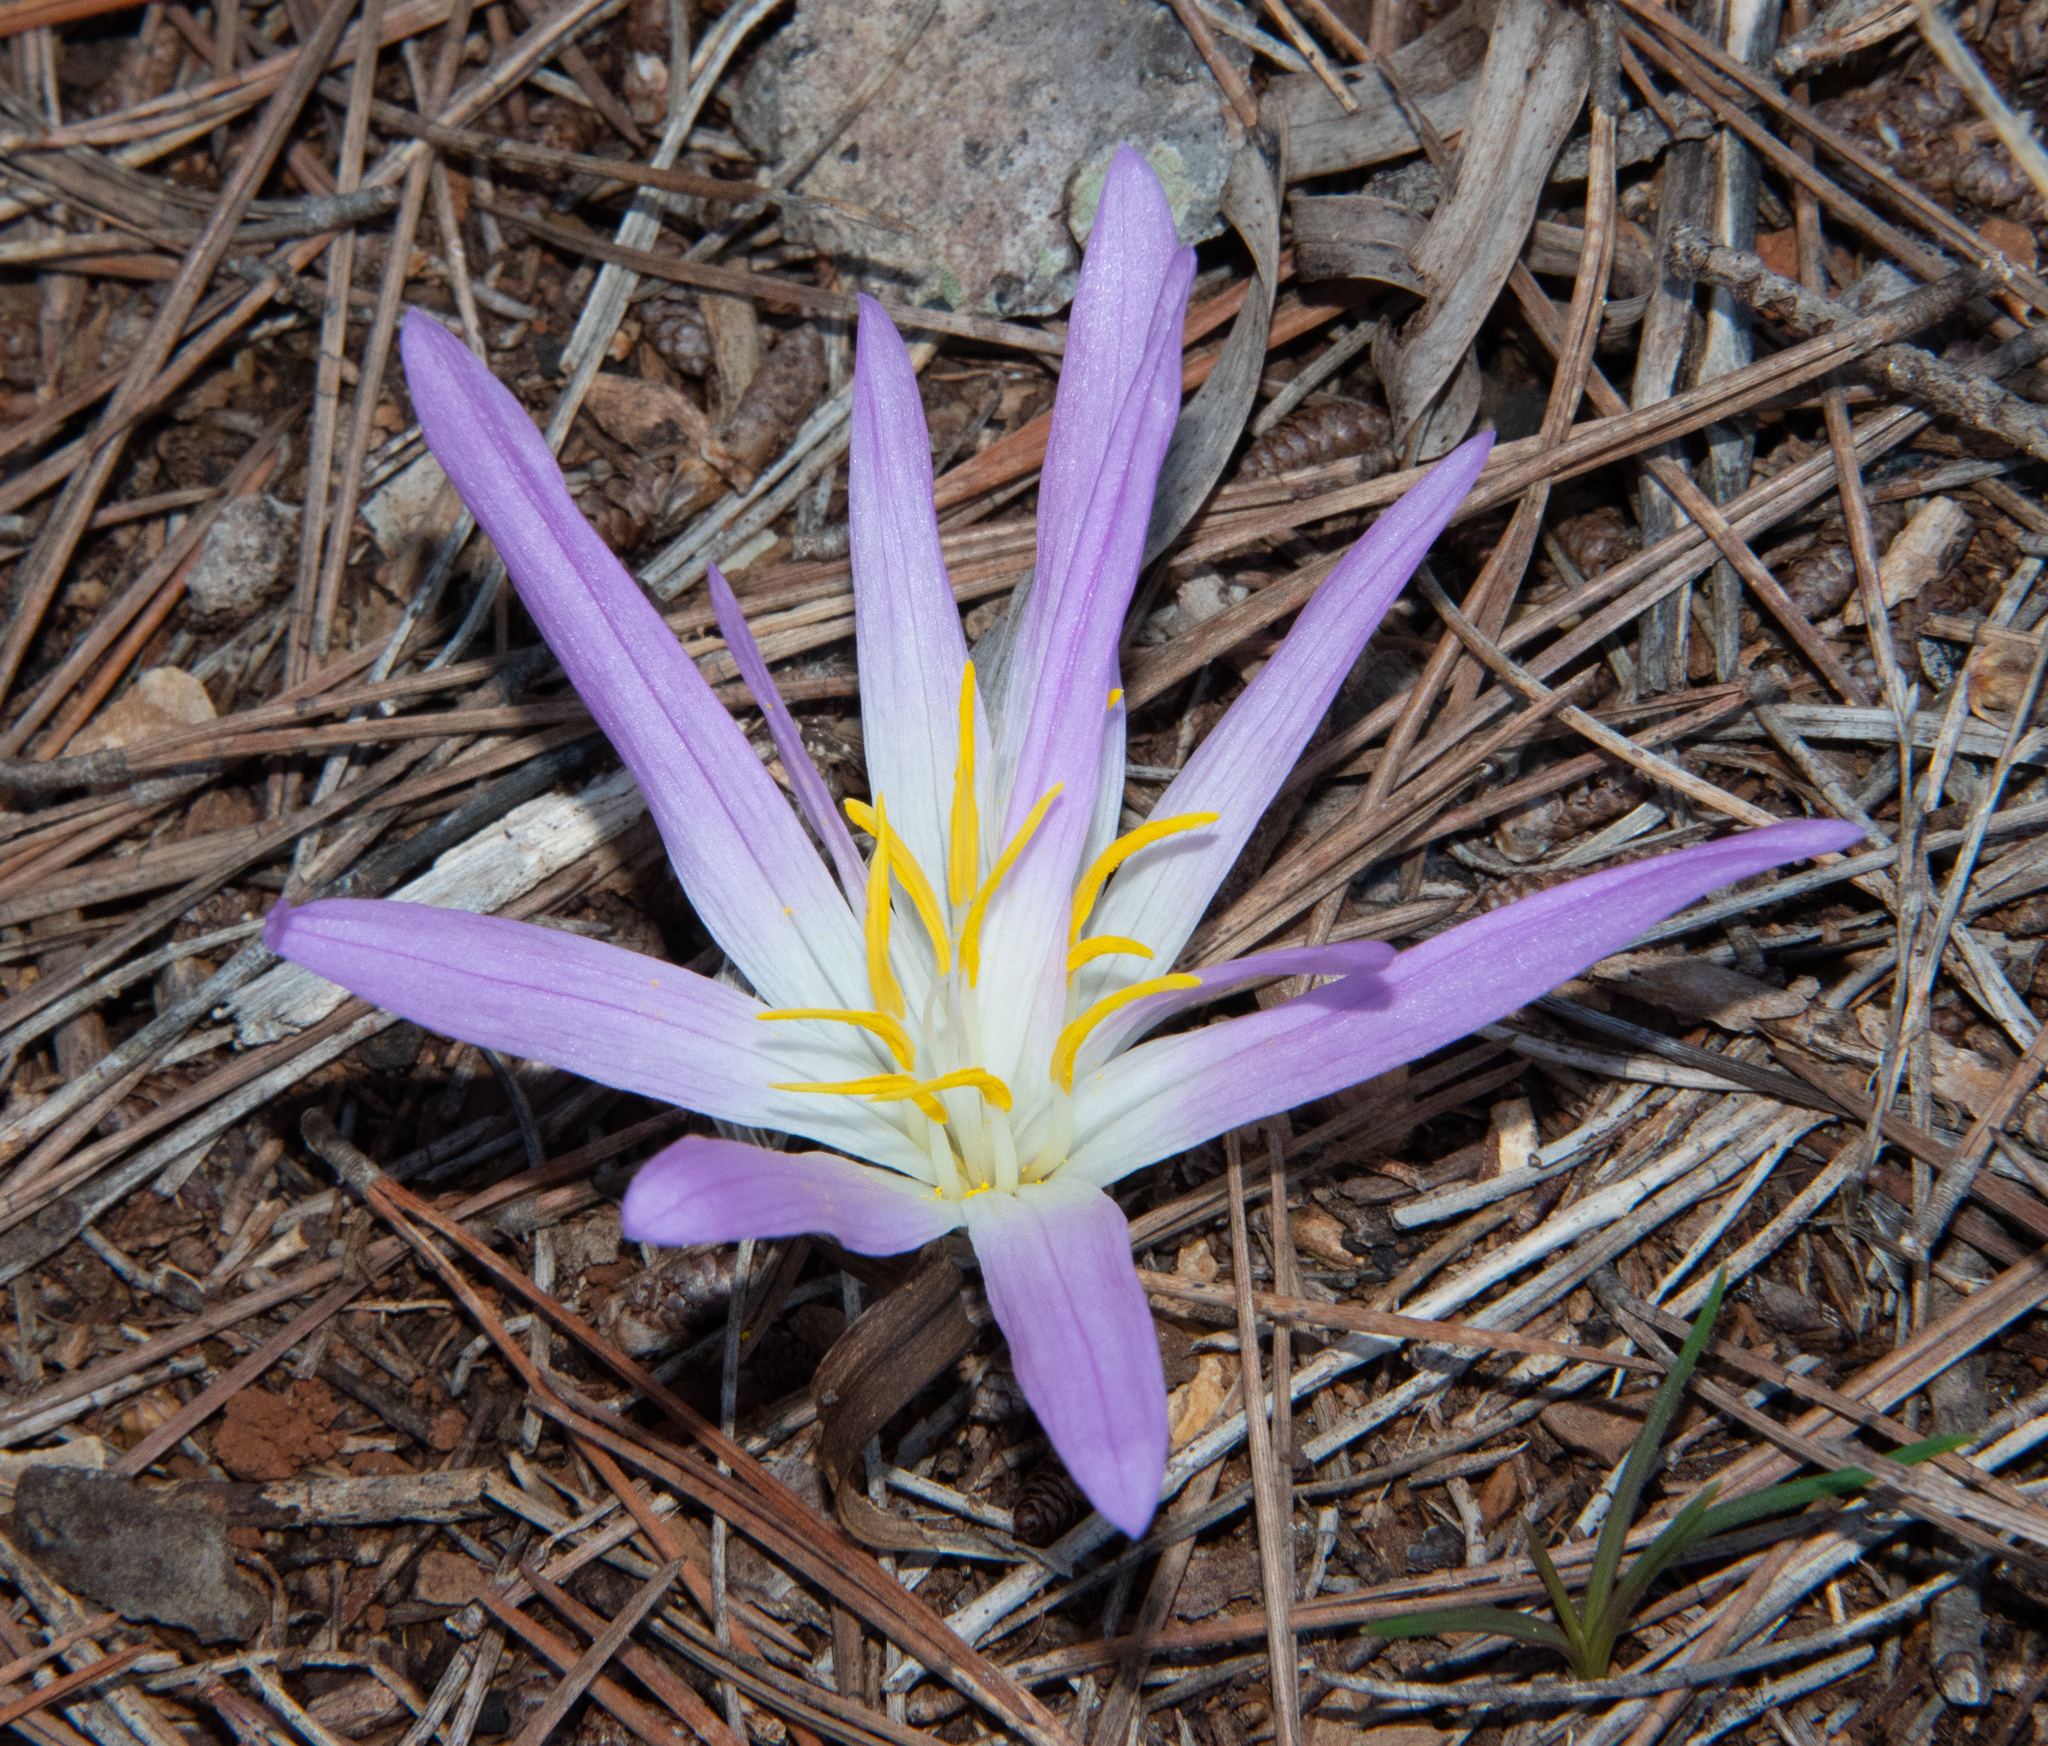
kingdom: Plantae
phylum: Tracheophyta
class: Liliopsida
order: Liliales
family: Colchicaceae
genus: Colchicum
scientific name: Colchicum filifolium
